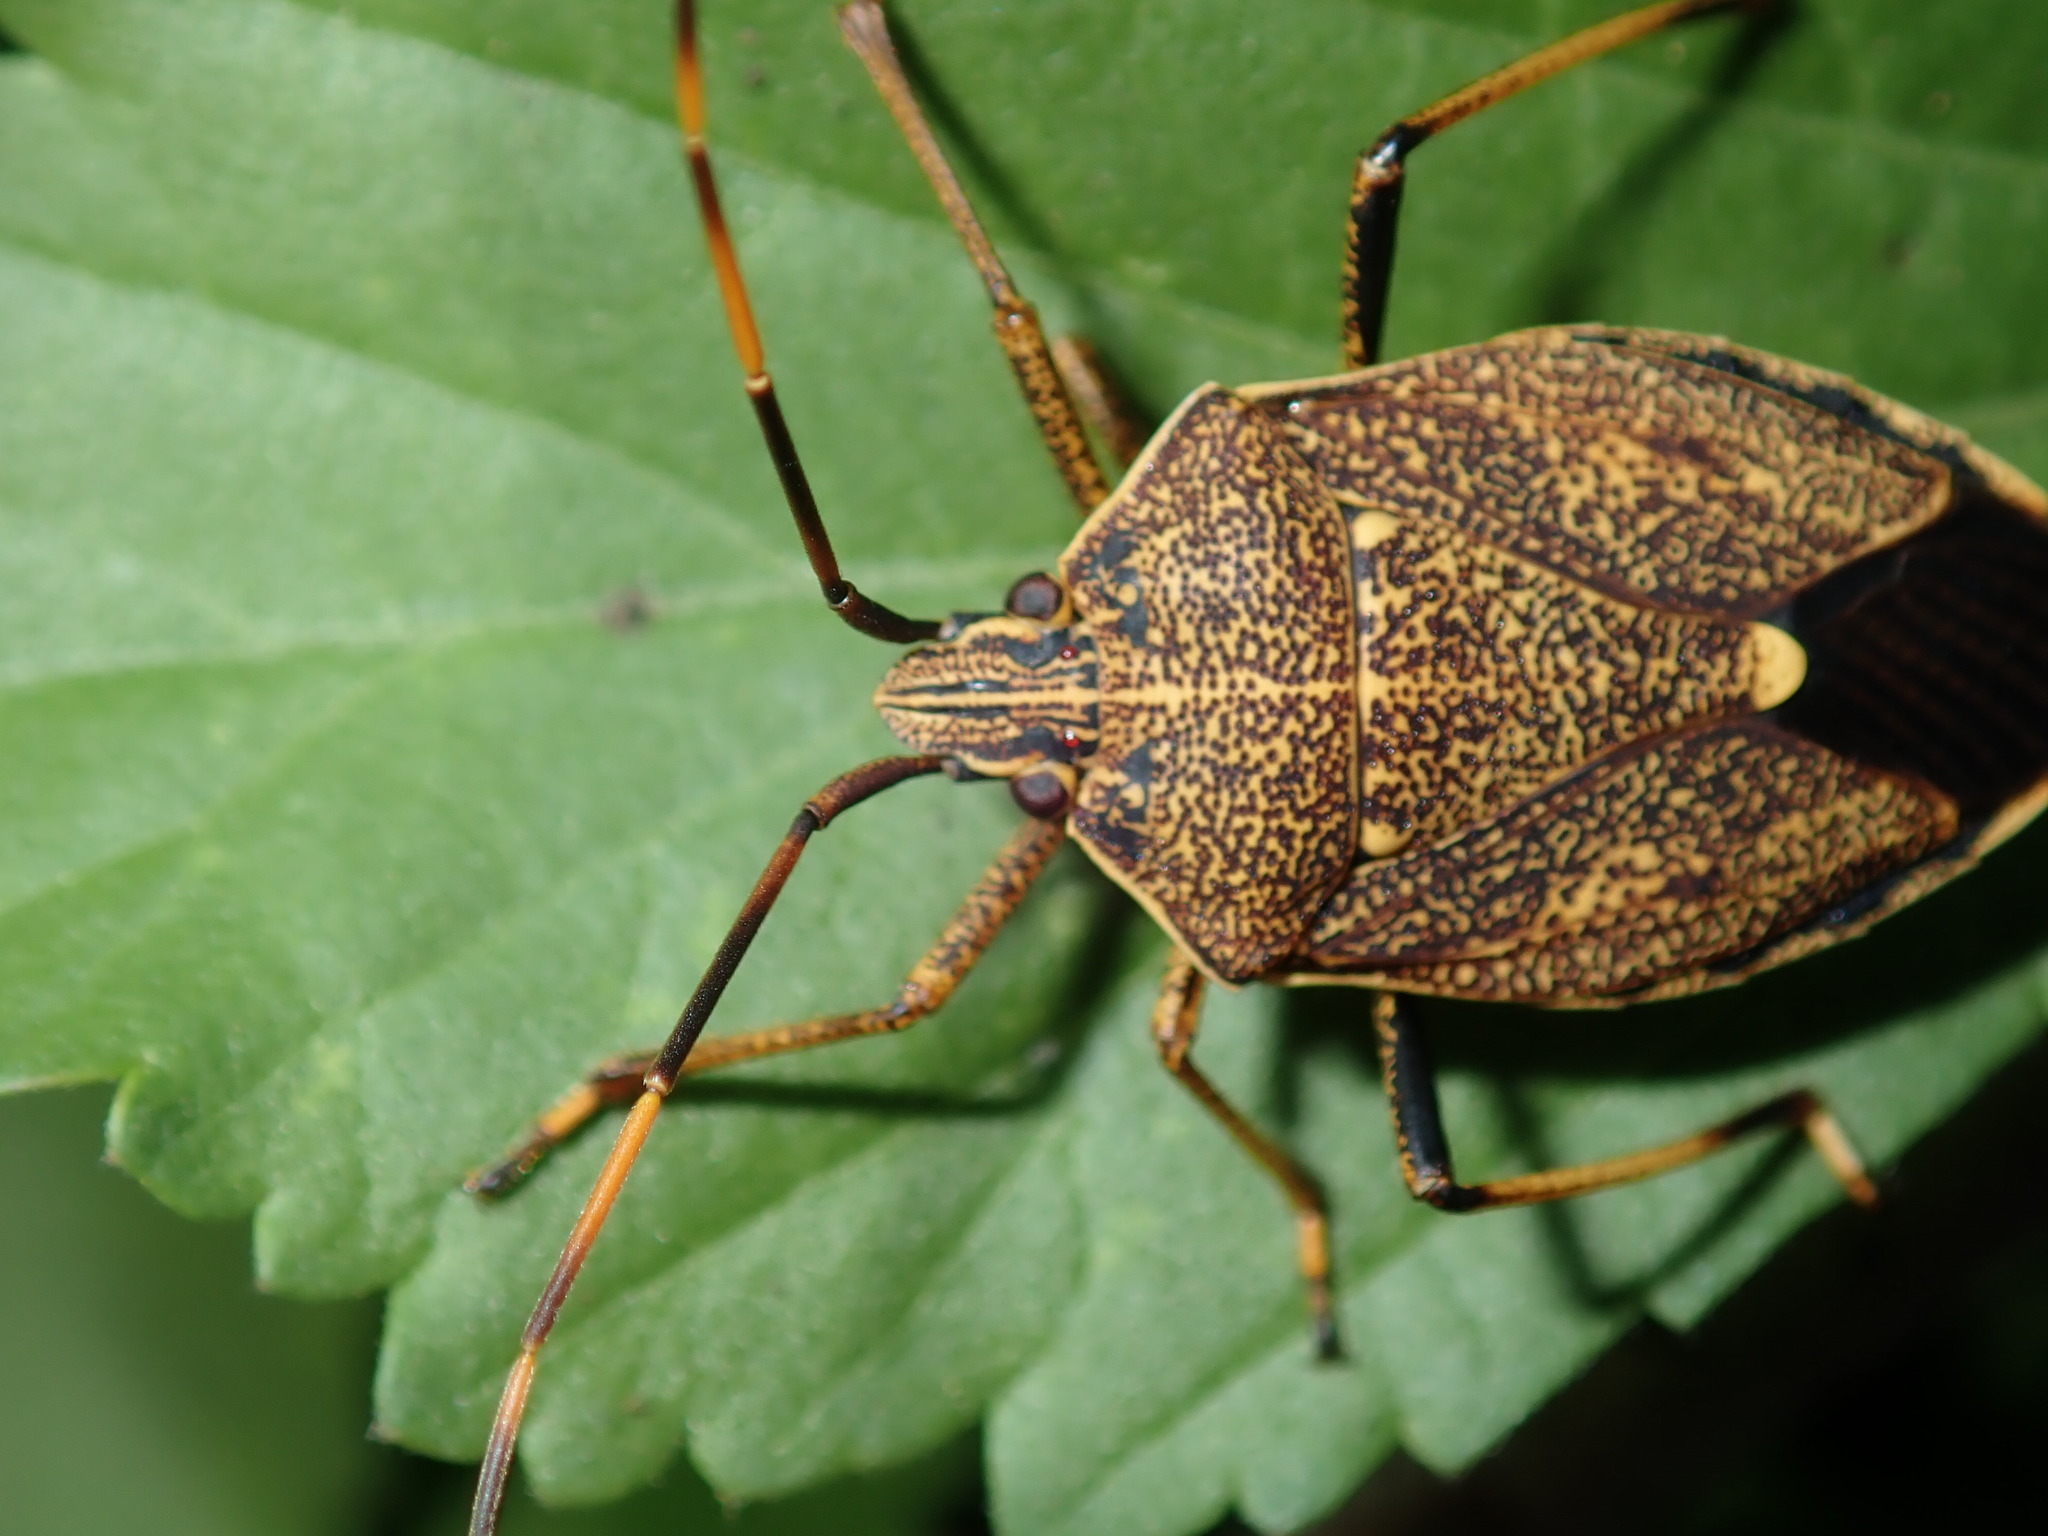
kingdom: Animalia
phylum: Arthropoda
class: Insecta
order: Hemiptera
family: Pentatomidae
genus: Poecilometis
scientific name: Poecilometis
